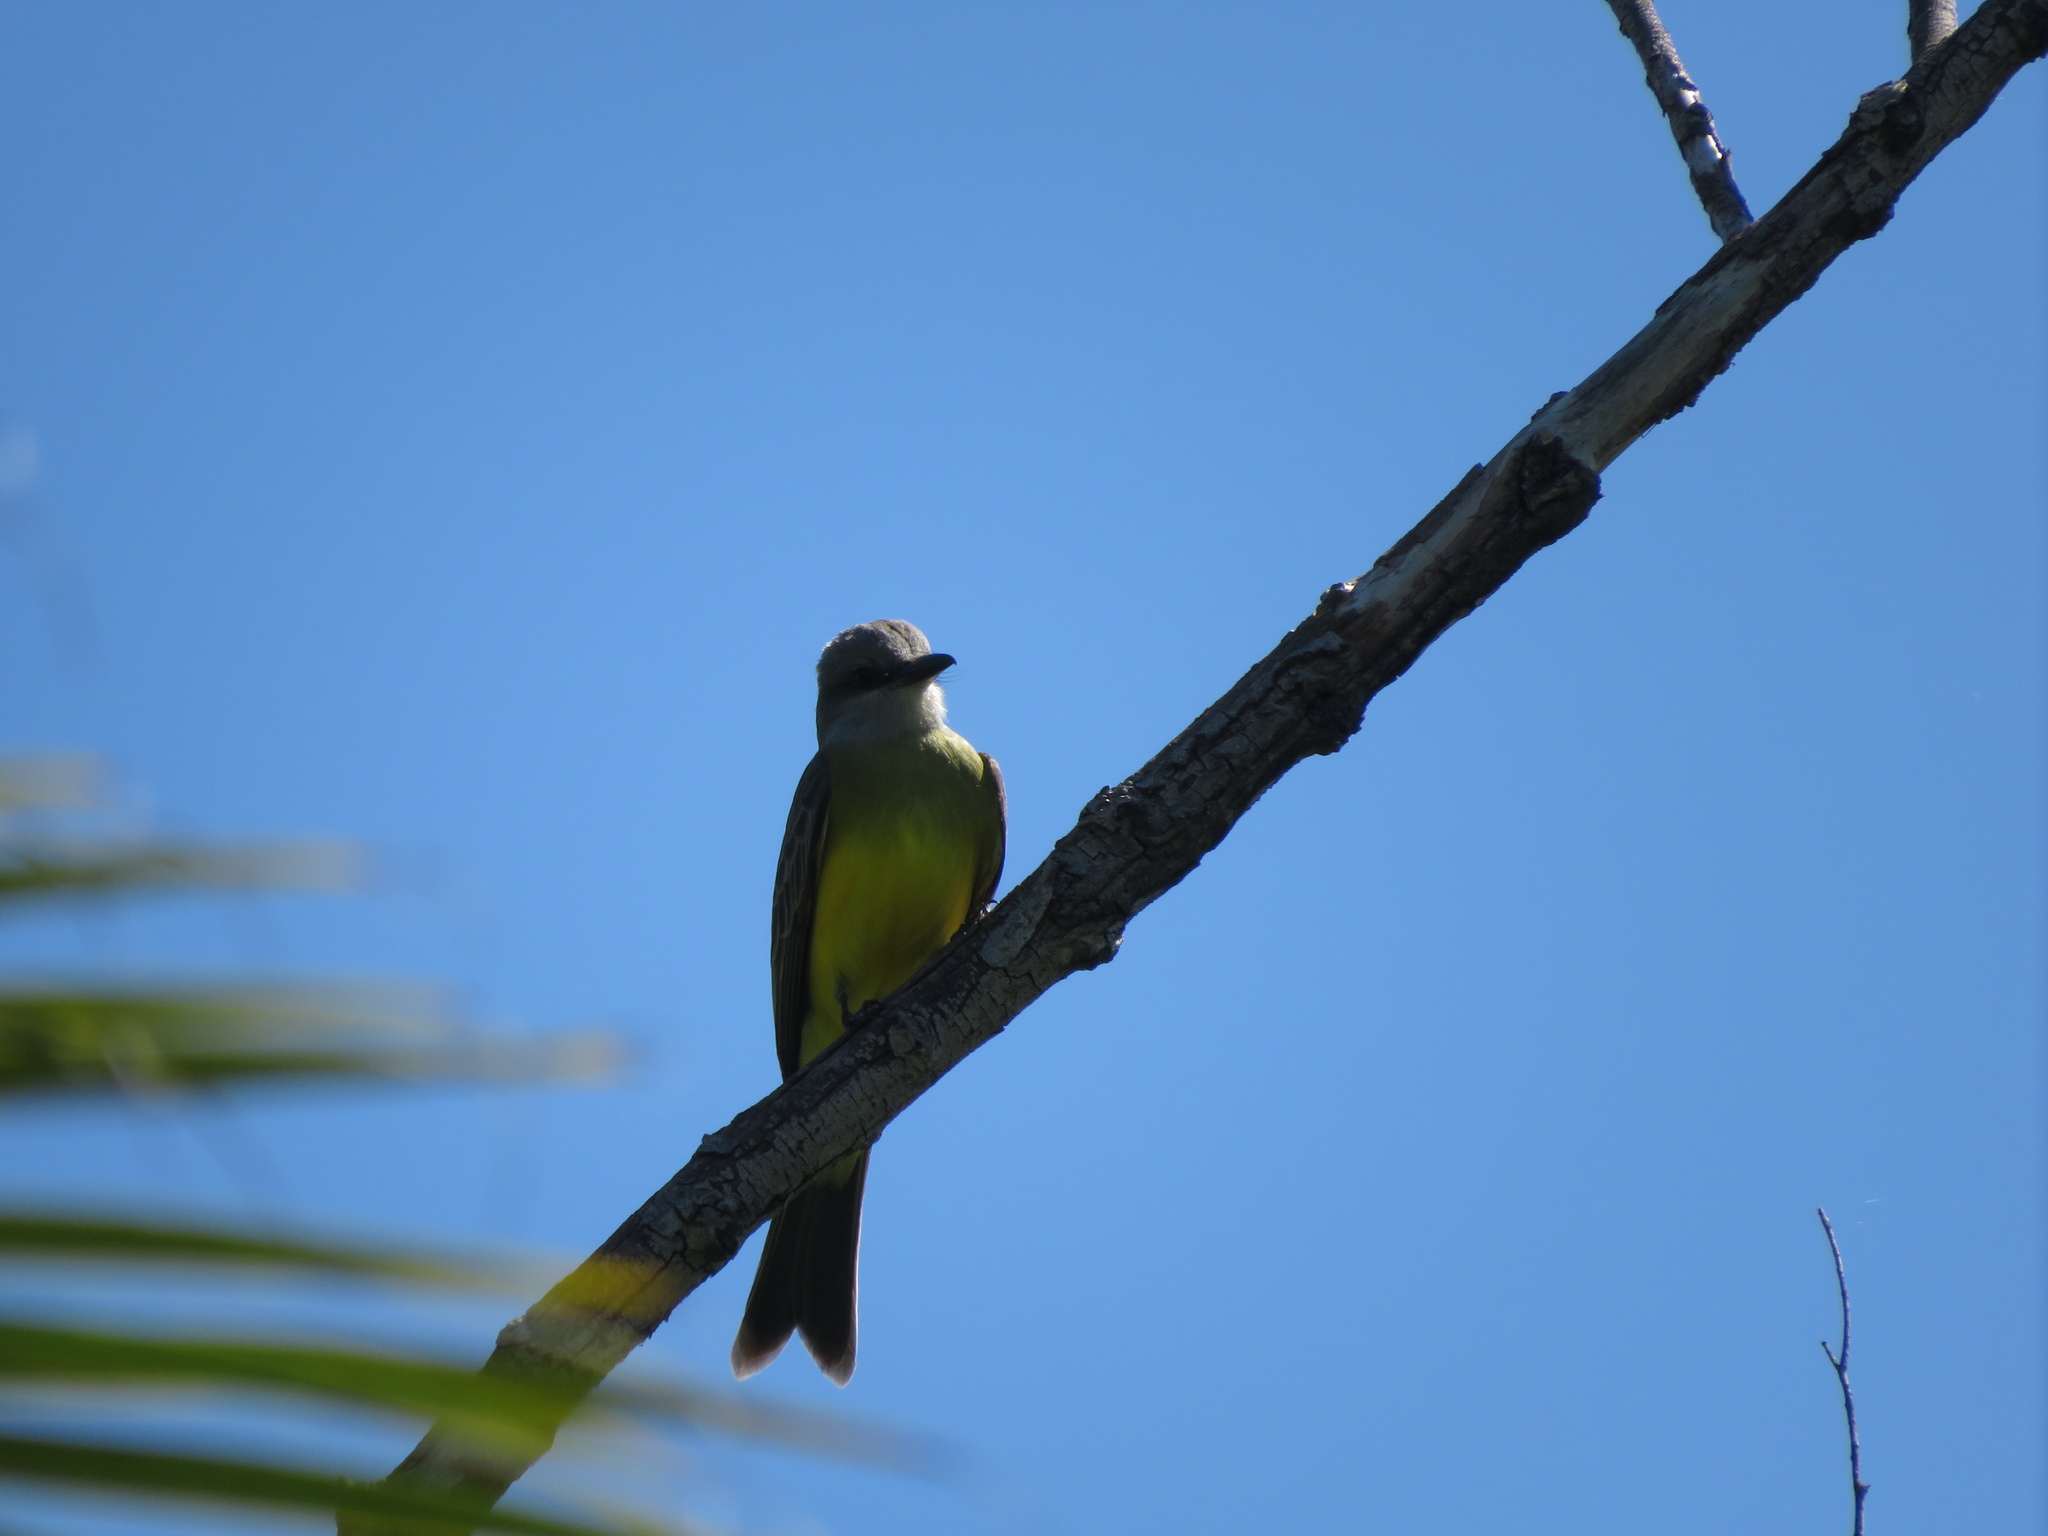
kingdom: Animalia
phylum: Chordata
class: Aves
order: Passeriformes
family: Tyrannidae
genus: Tyrannus
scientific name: Tyrannus melancholicus
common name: Tropical kingbird
